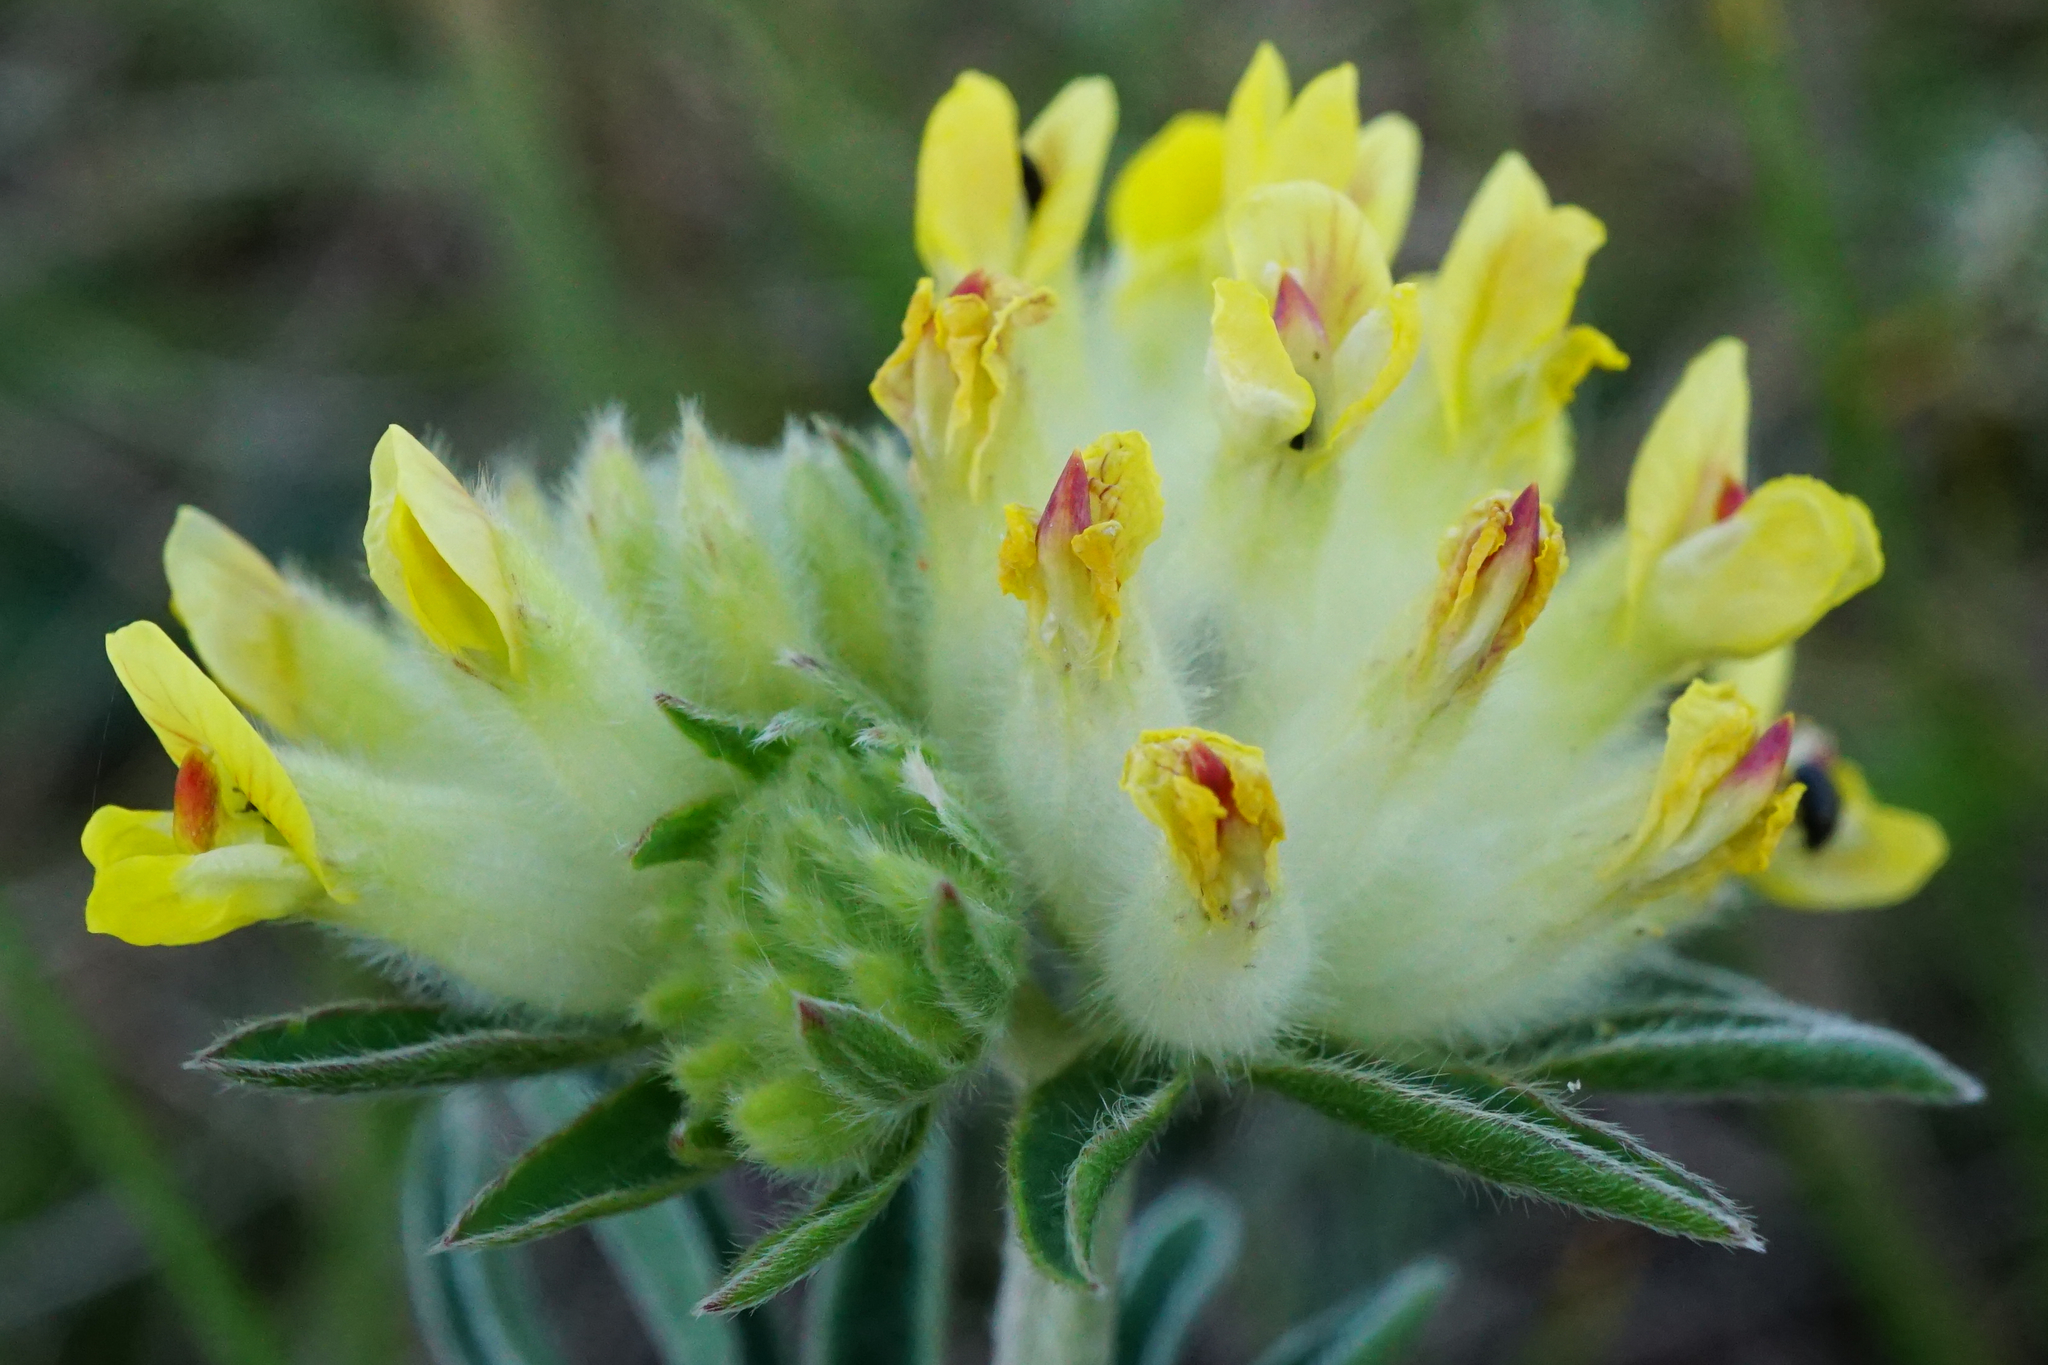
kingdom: Plantae
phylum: Tracheophyta
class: Magnoliopsida
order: Fabales
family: Fabaceae
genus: Anthyllis
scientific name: Anthyllis vulneraria
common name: Kidney vetch
